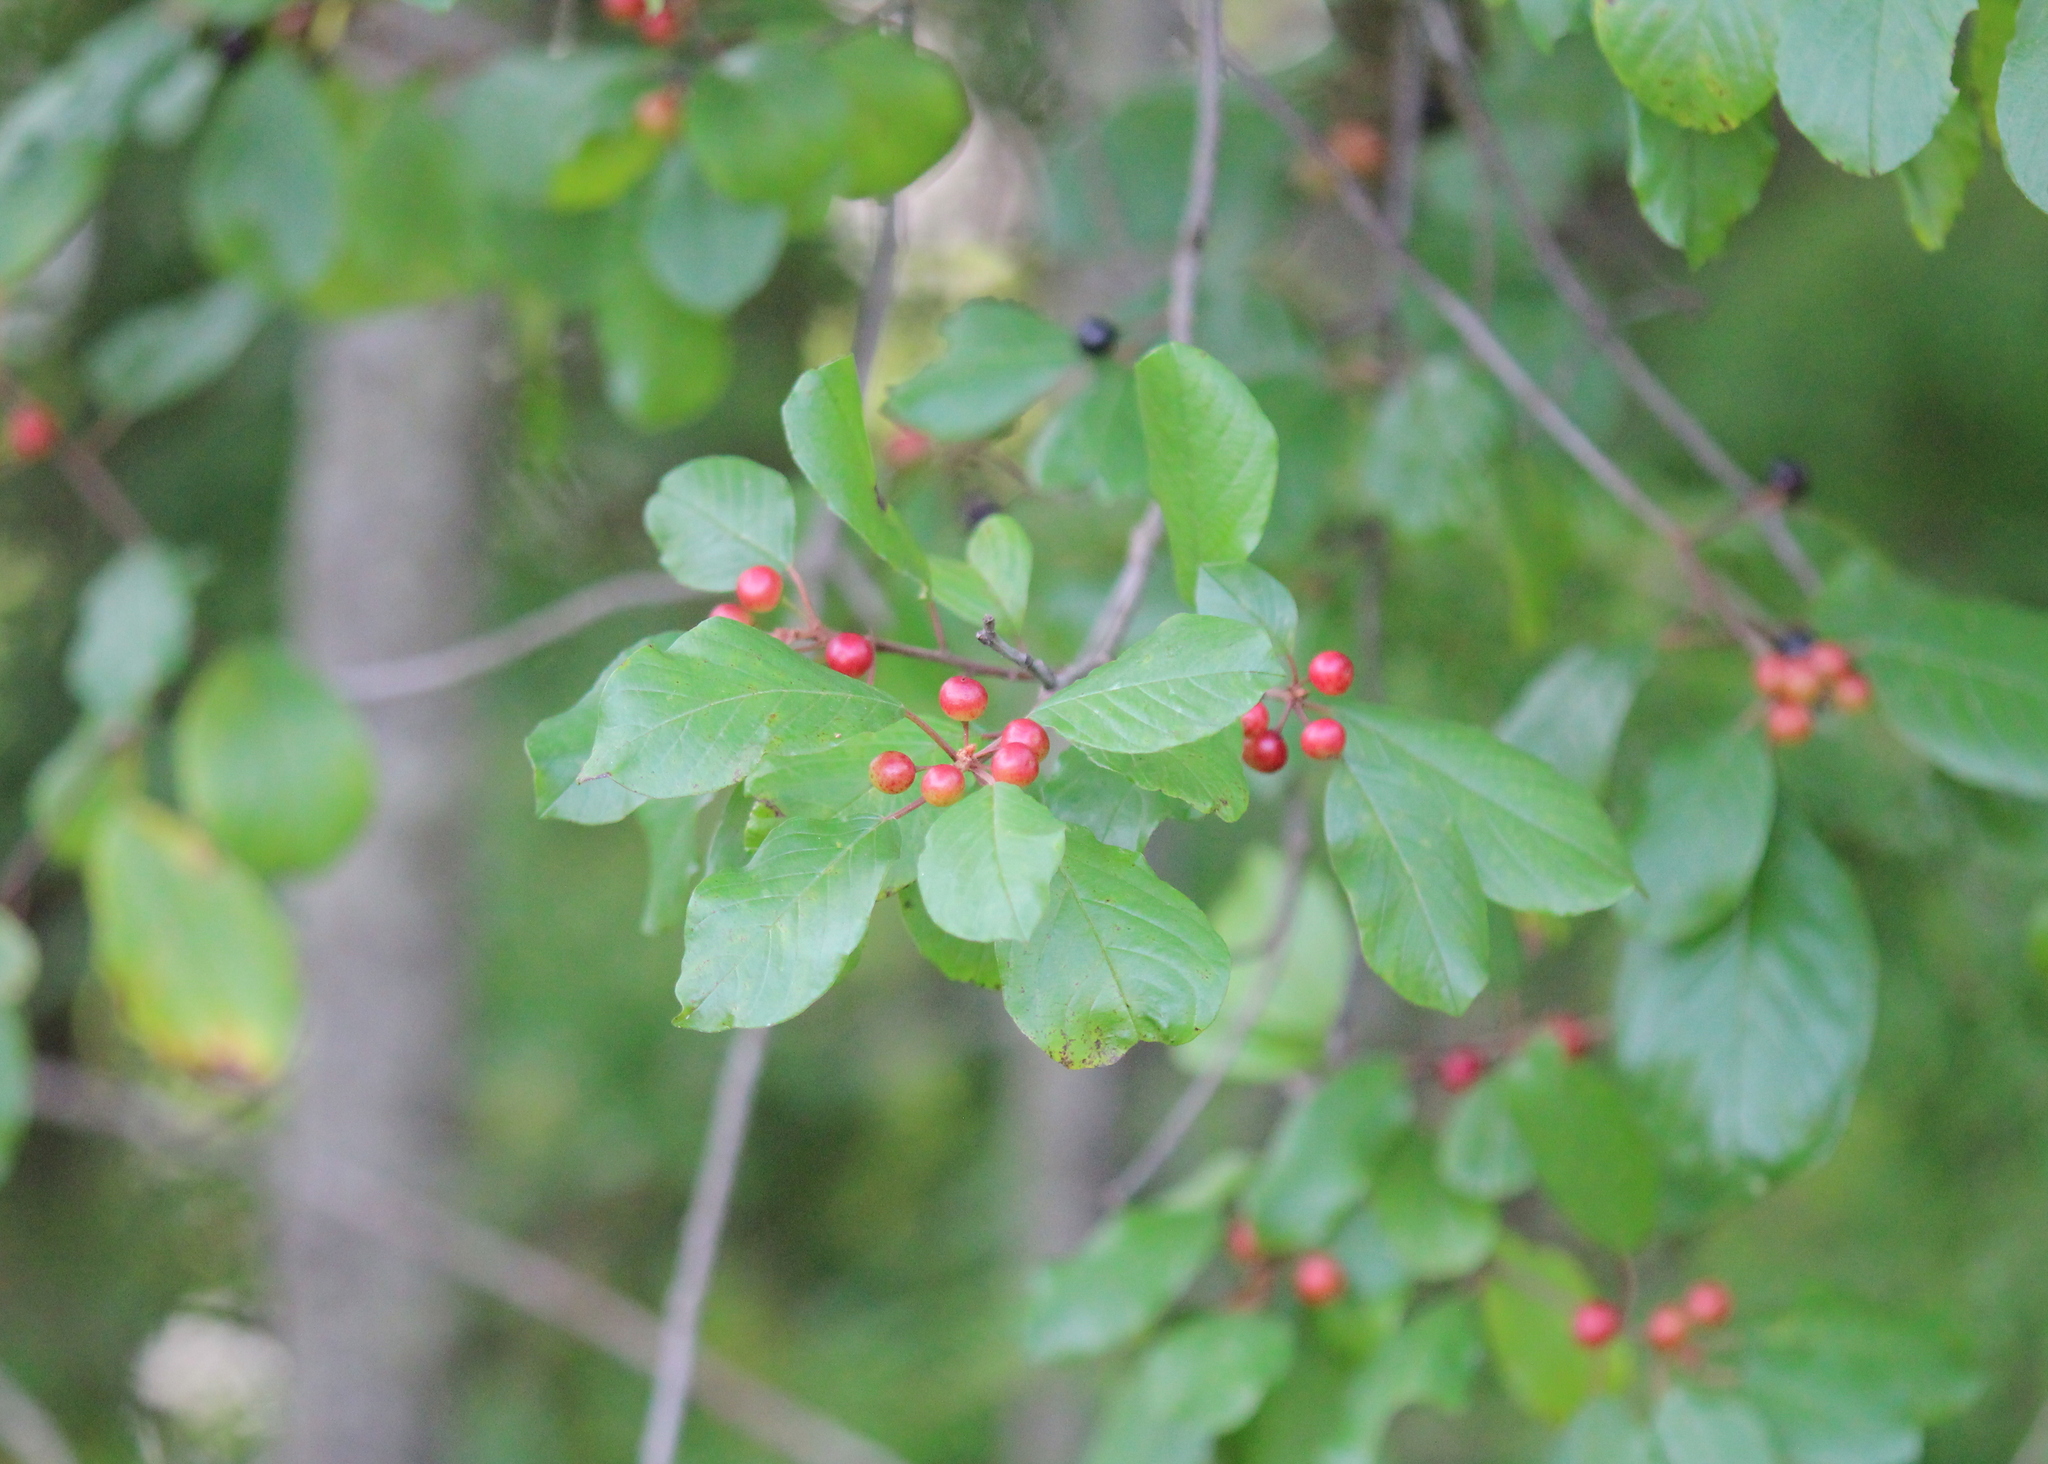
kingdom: Plantae
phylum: Tracheophyta
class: Magnoliopsida
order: Rosales
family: Rhamnaceae
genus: Frangula
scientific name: Frangula alnus
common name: Alder buckthorn
